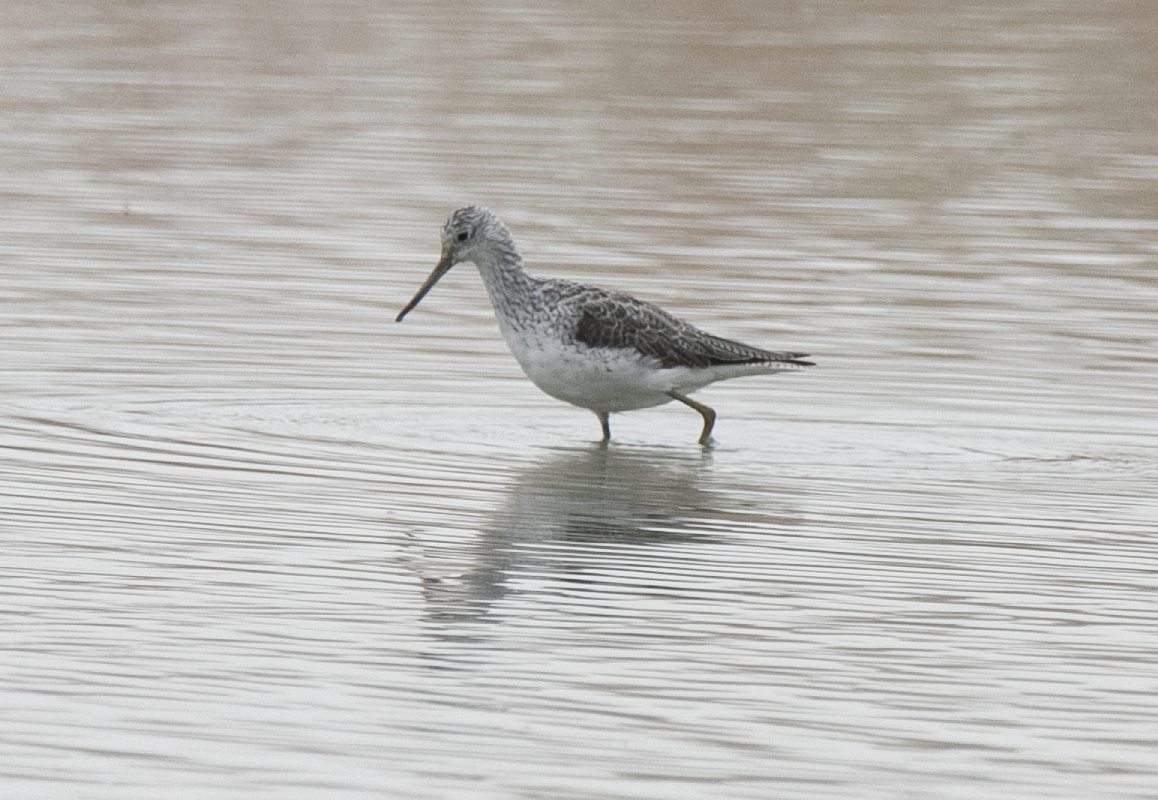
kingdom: Animalia
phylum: Chordata
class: Aves
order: Charadriiformes
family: Scolopacidae
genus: Tringa
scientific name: Tringa nebularia
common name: Common greenshank
